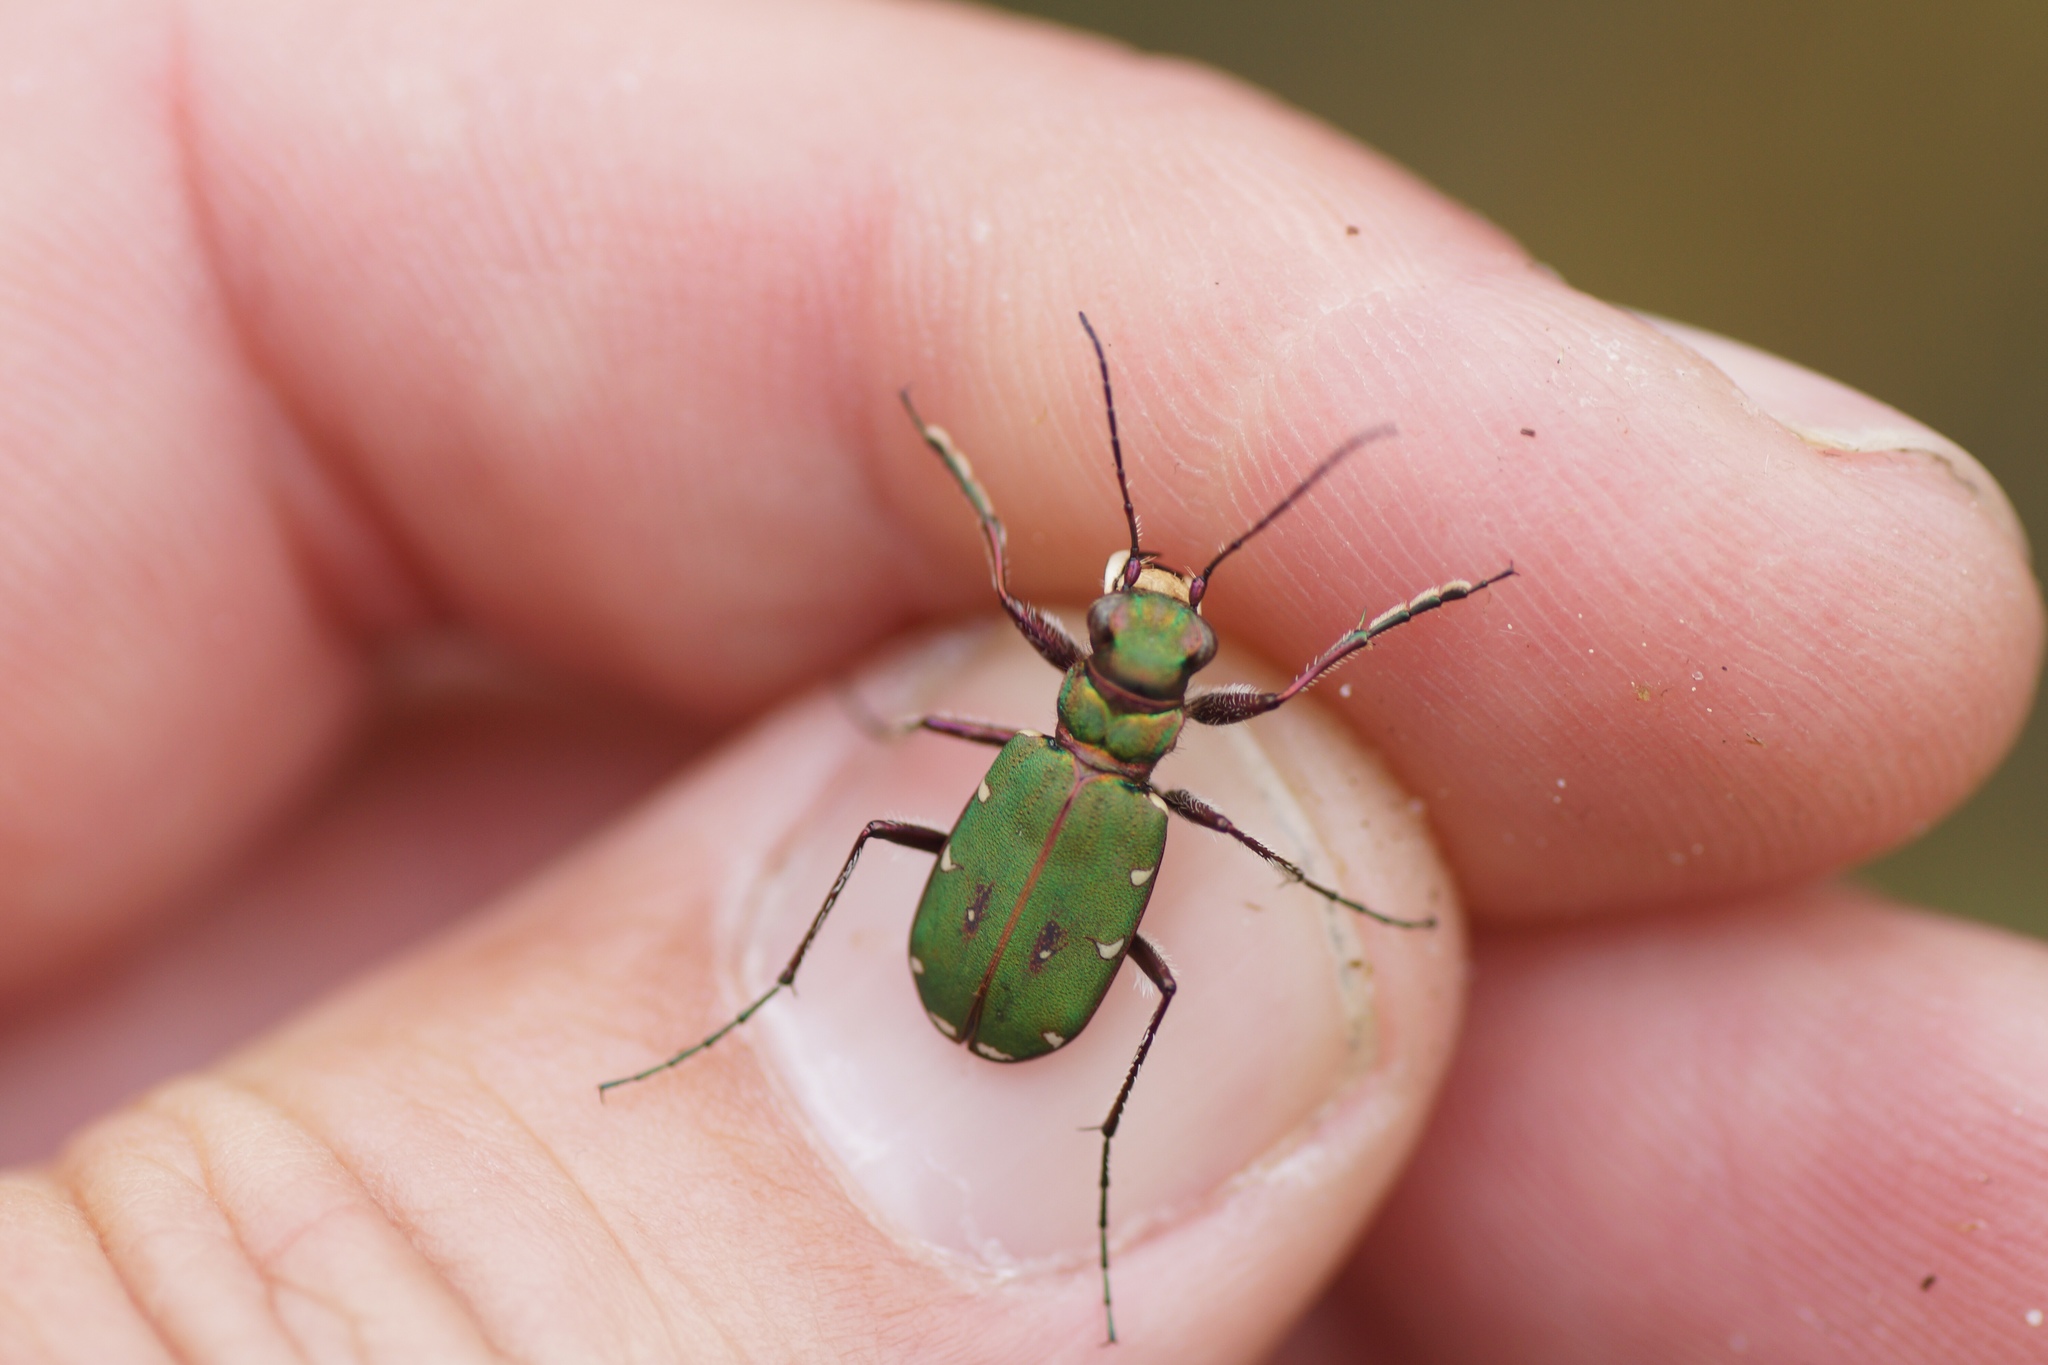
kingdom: Animalia
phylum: Arthropoda
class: Insecta
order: Coleoptera
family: Carabidae
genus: Cicindela
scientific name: Cicindela campestris
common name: Common tiger beetle
